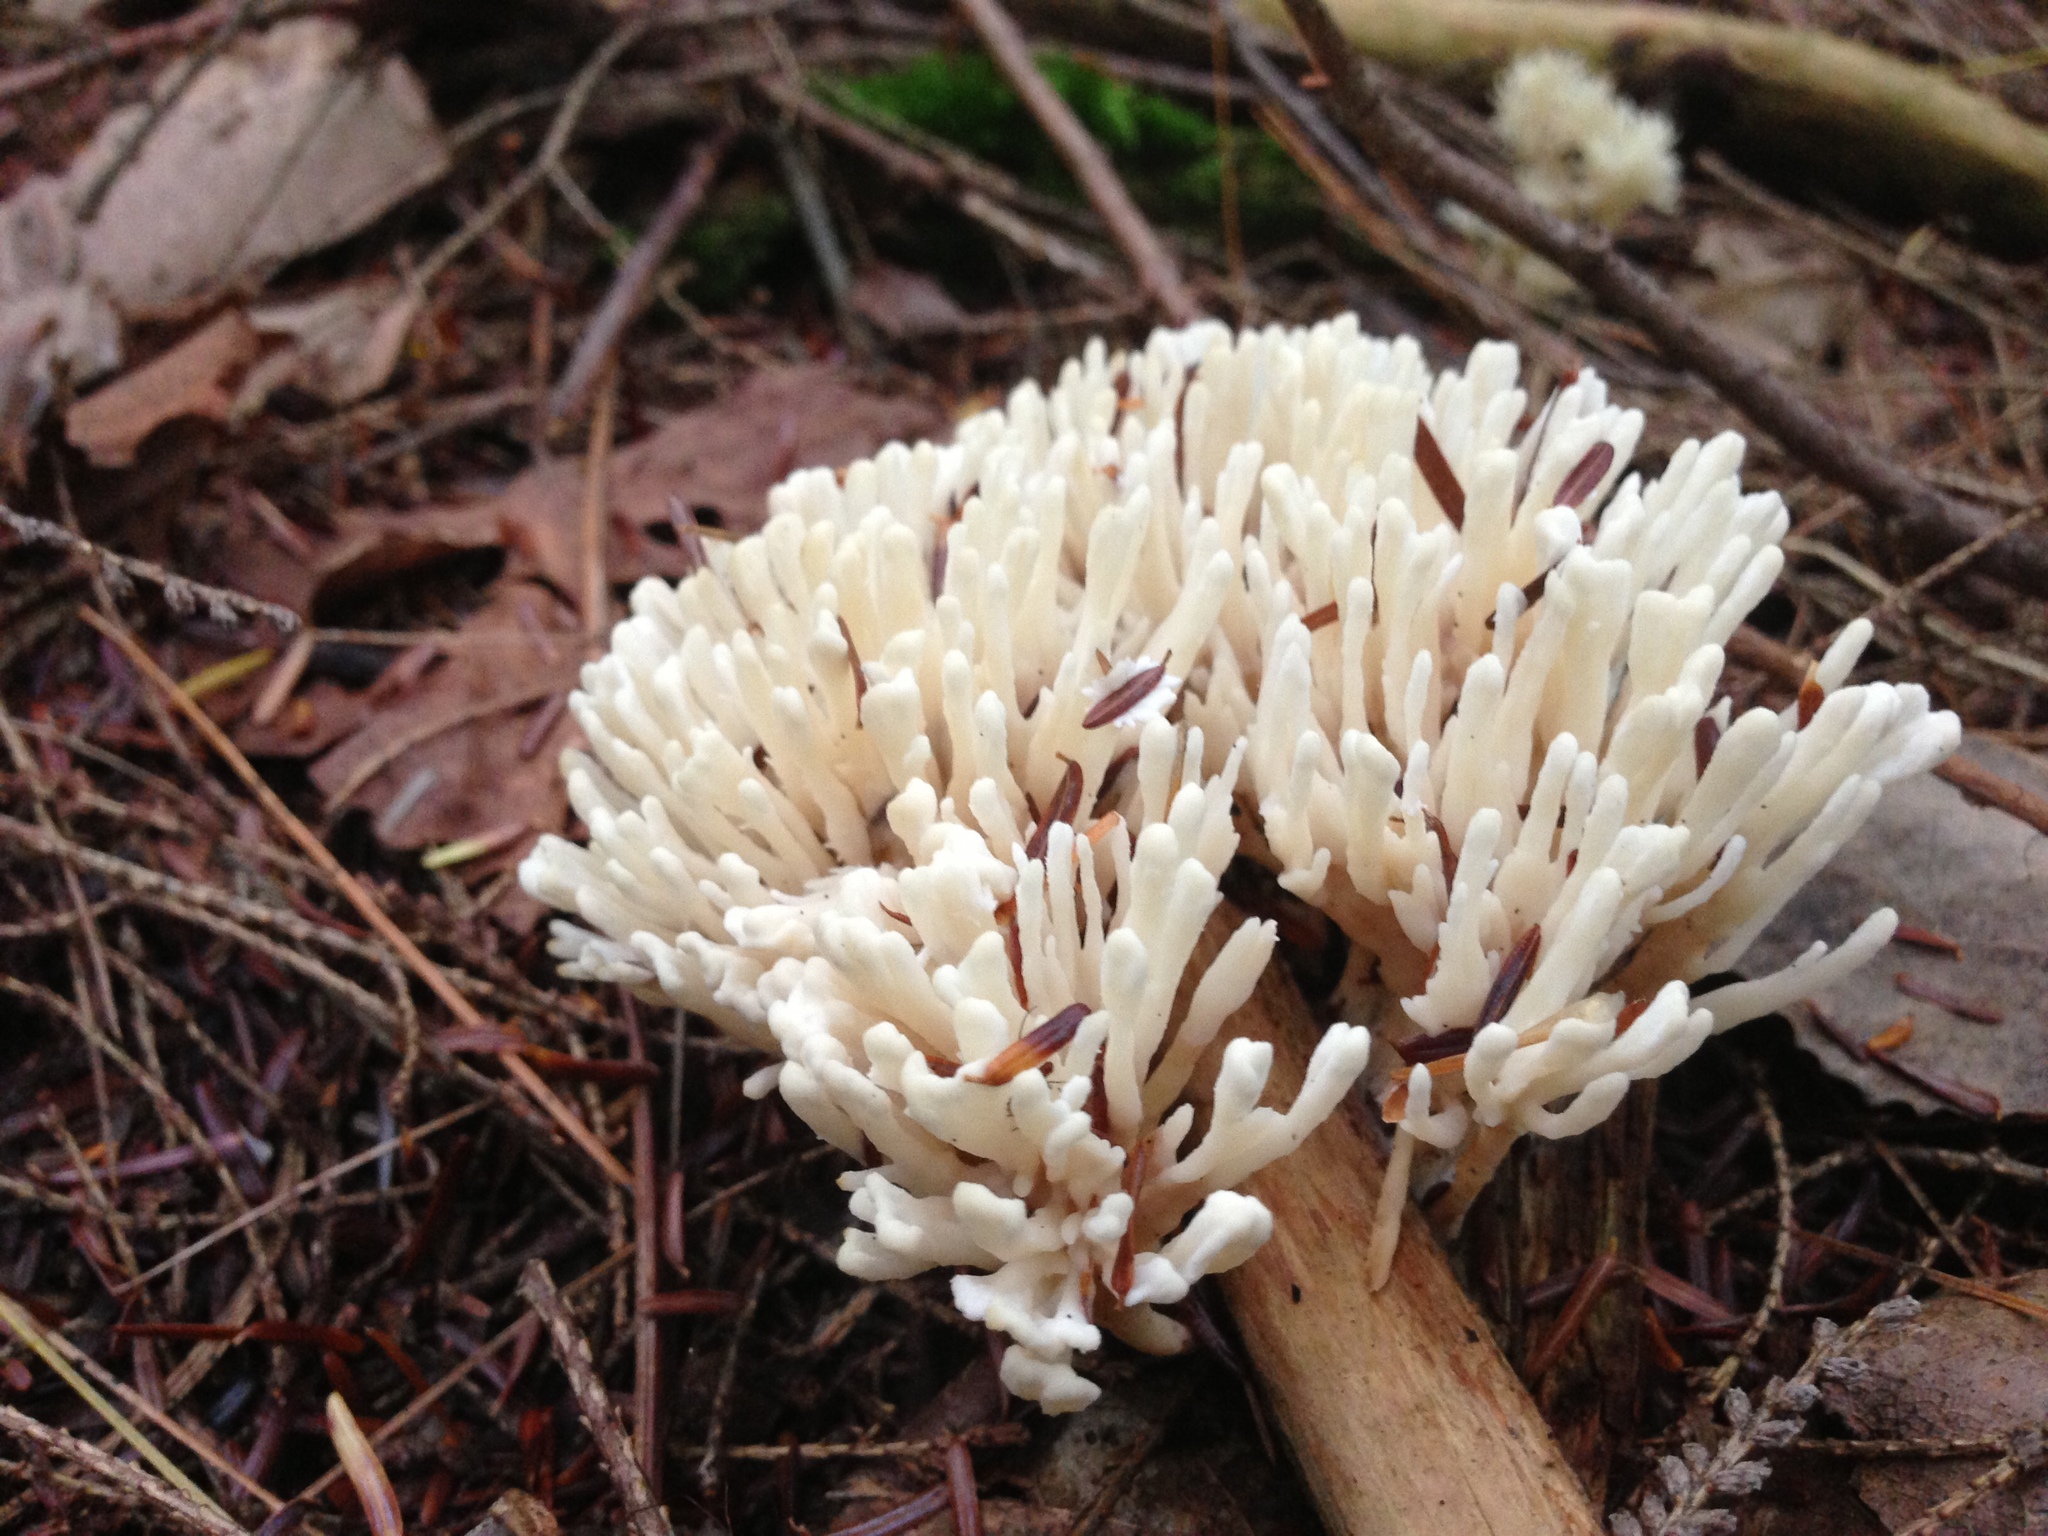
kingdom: Fungi
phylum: Basidiomycota
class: Agaricomycetes
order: Sebacinales
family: Sebacinaceae
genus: Sebacina
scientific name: Sebacina schweinitzii
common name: Jellied false coral fungus
